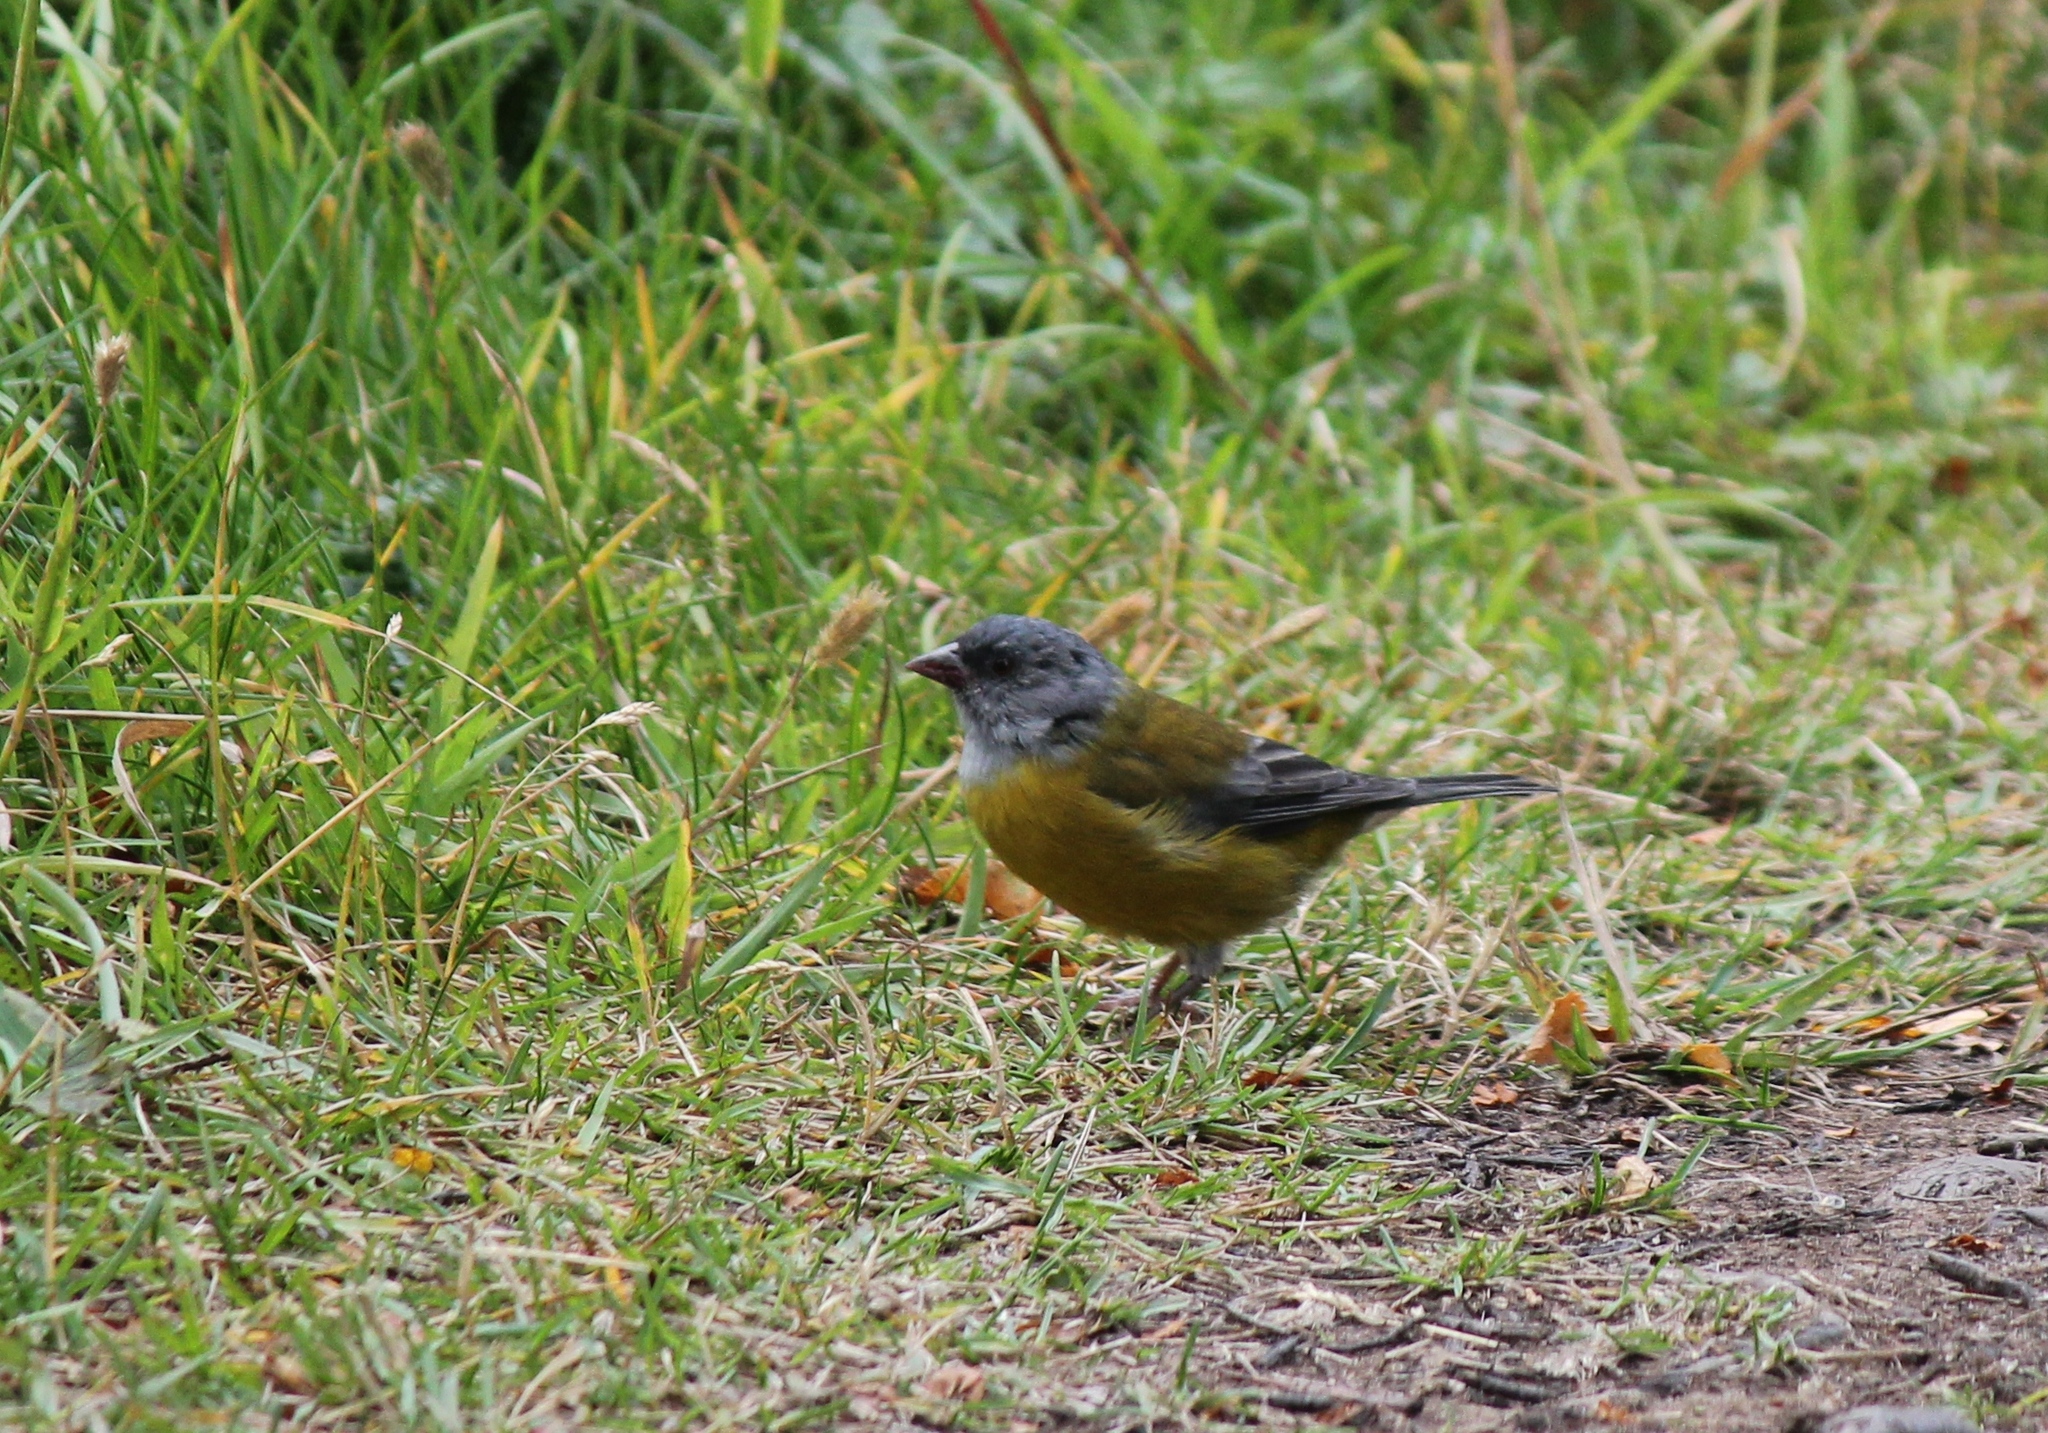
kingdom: Animalia
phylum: Chordata
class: Aves
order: Passeriformes
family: Thraupidae
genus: Phrygilus
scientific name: Phrygilus patagonicus
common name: Patagonian sierra finch
